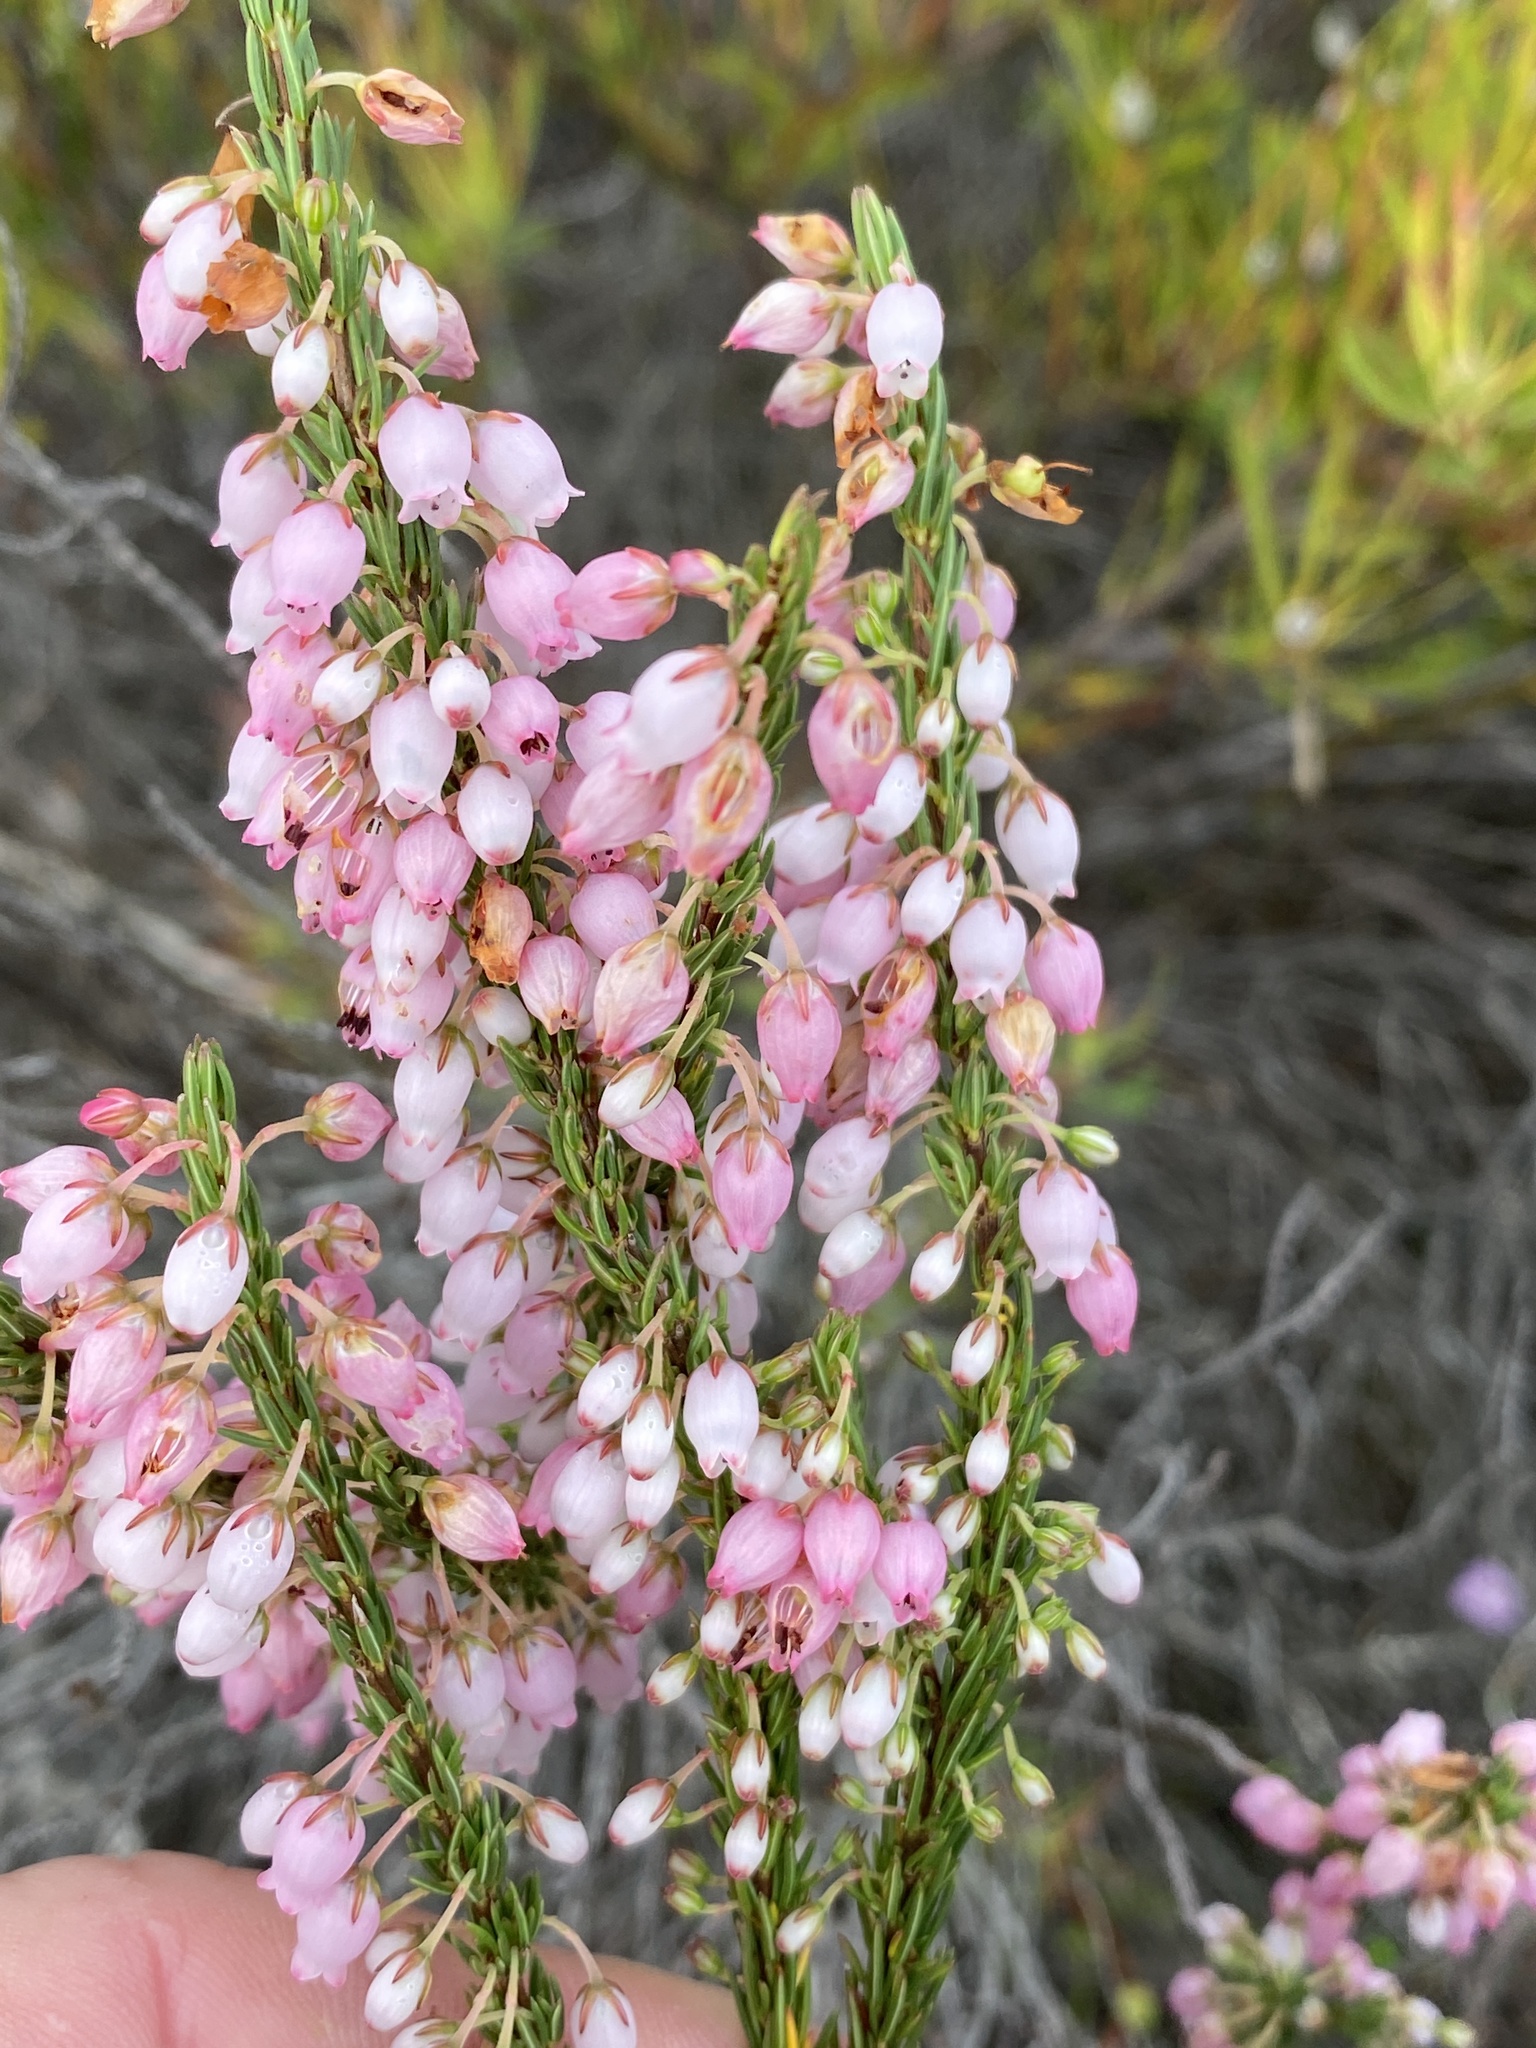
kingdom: Plantae
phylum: Tracheophyta
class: Magnoliopsida
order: Ericales
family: Ericaceae
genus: Erica
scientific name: Erica filipendula
